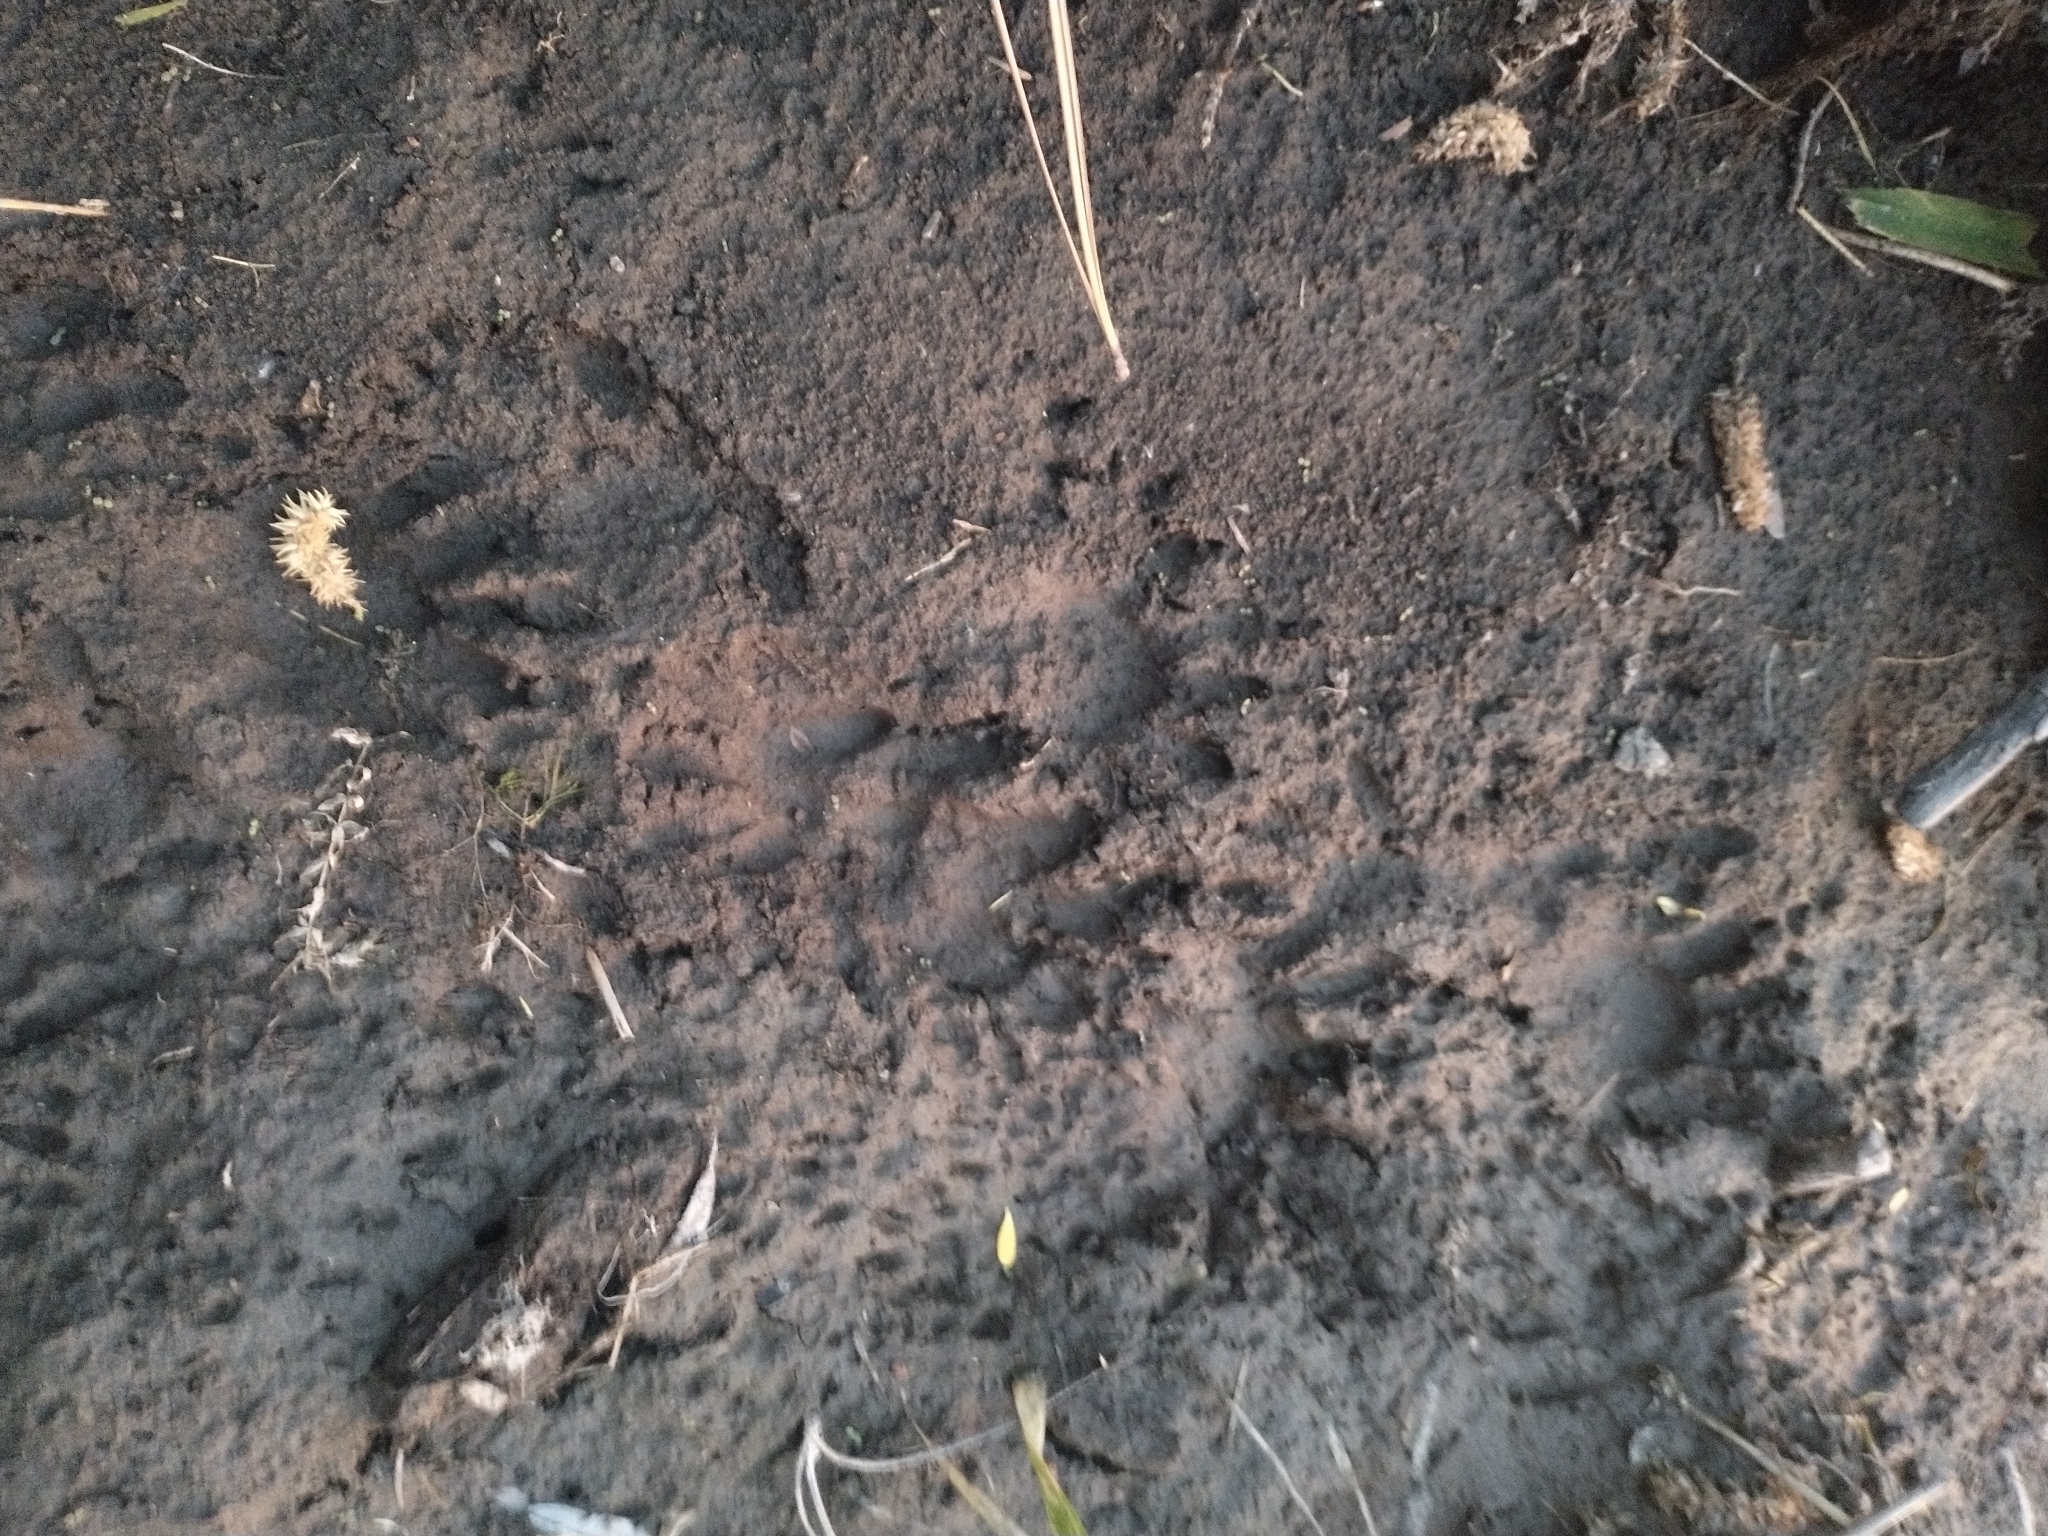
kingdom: Animalia
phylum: Chordata
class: Mammalia
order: Carnivora
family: Procyonidae
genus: Procyon
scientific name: Procyon lotor
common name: Raccoon
